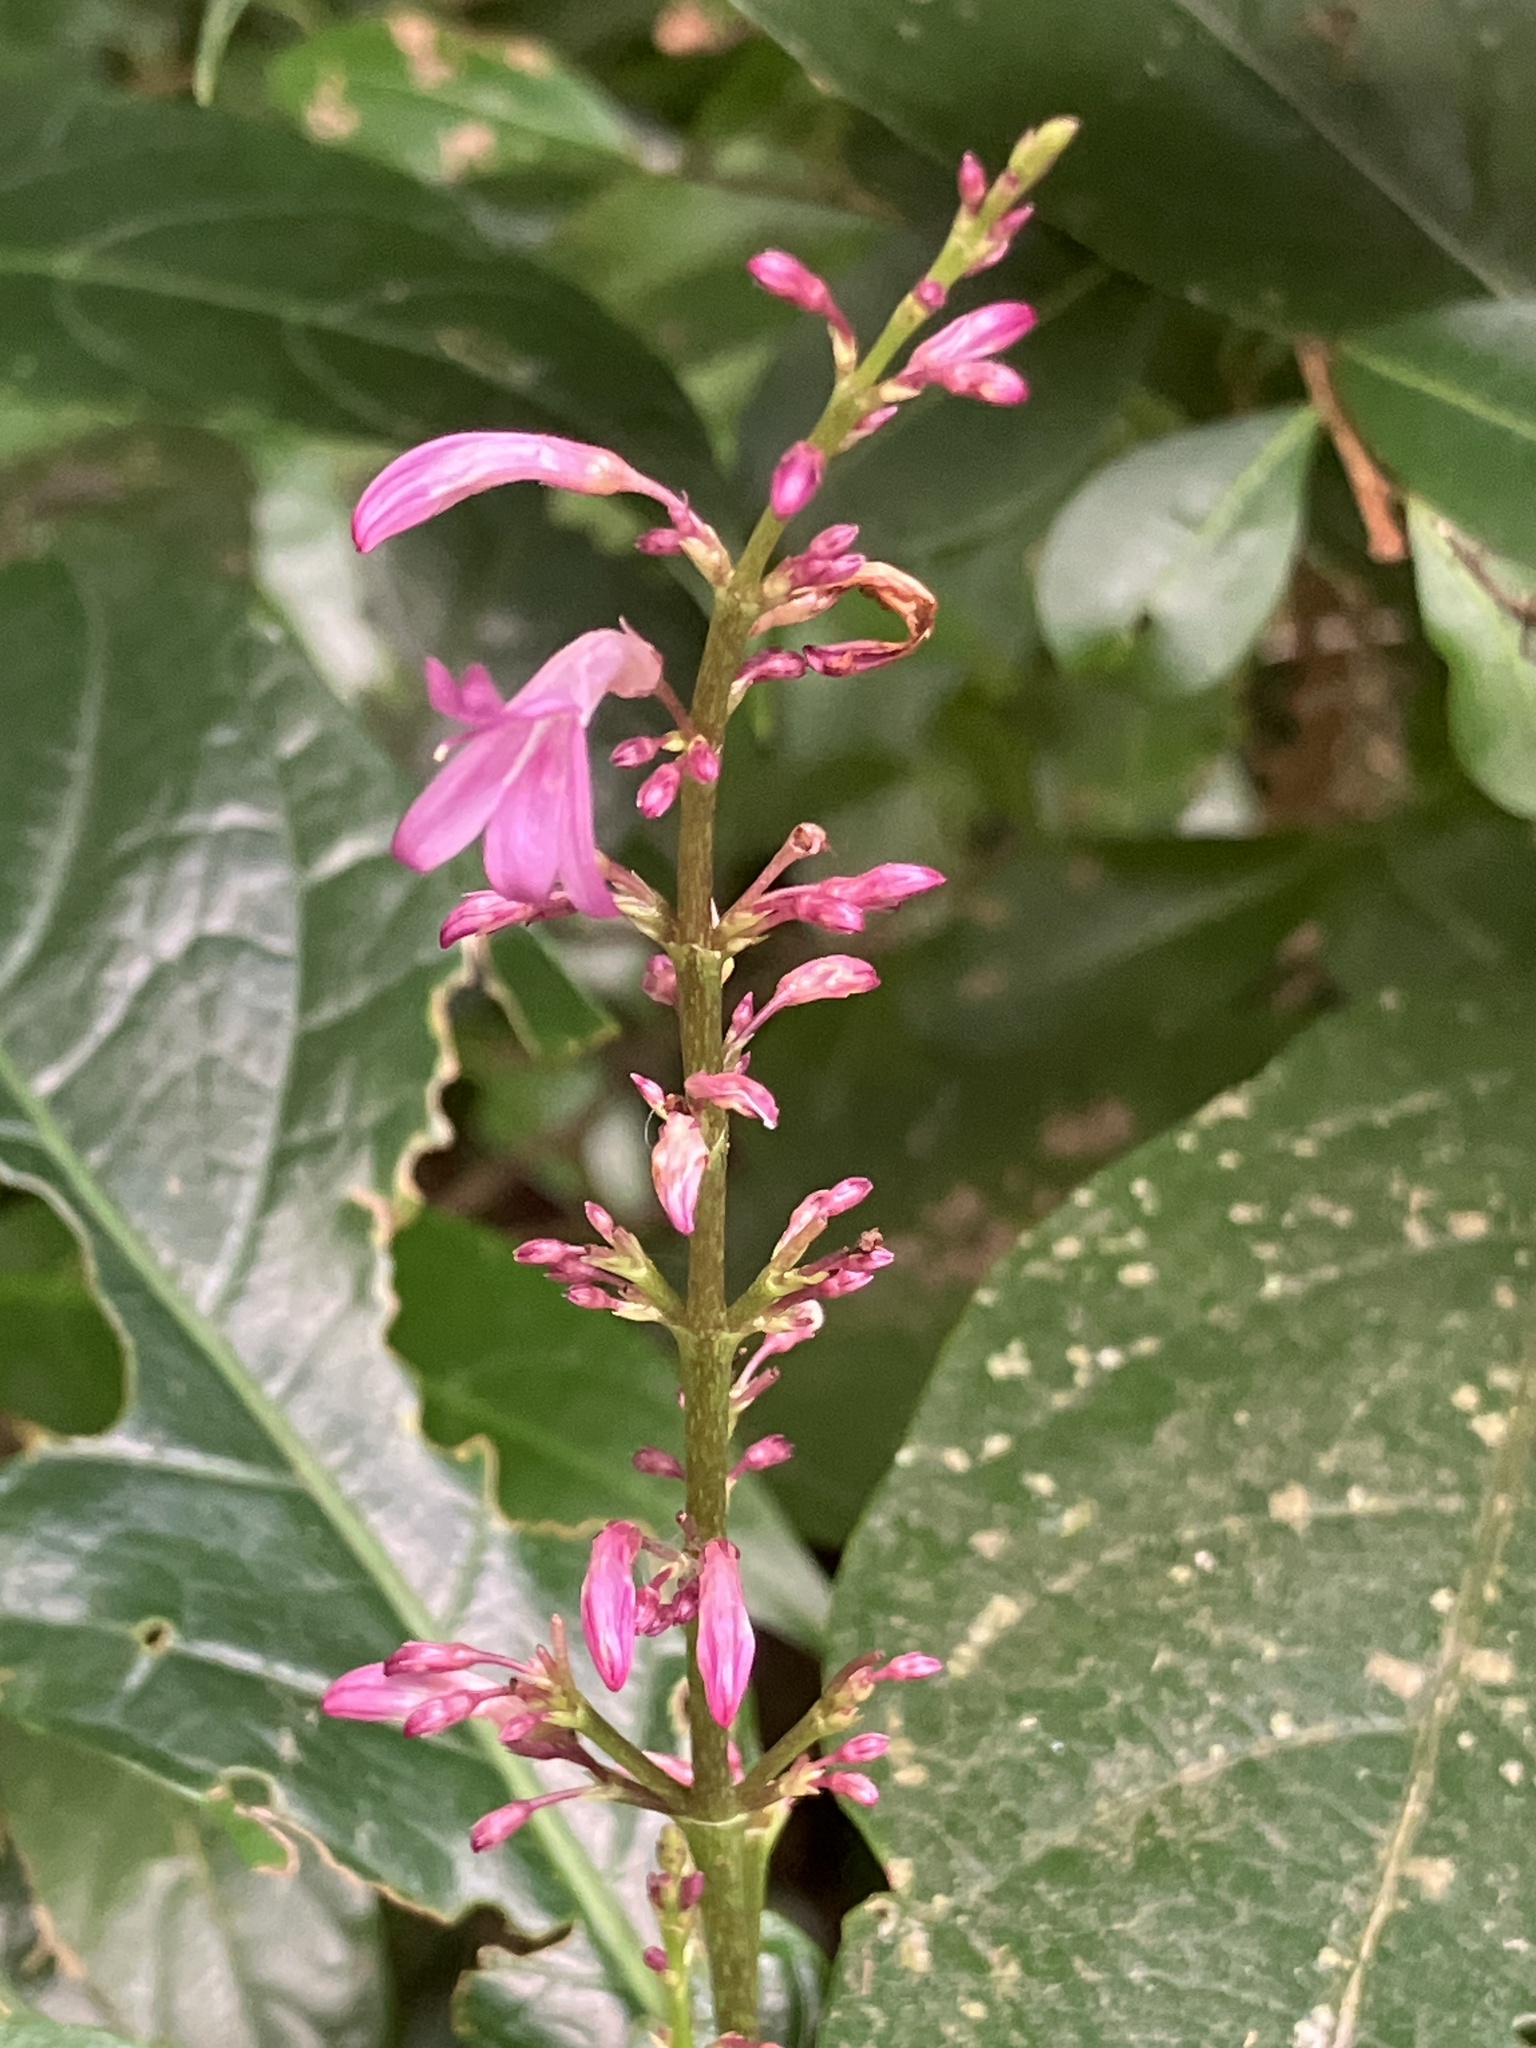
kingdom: Plantae
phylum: Tracheophyta
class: Magnoliopsida
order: Lamiales
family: Acanthaceae
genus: Odontonema
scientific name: Odontonema nitidum
